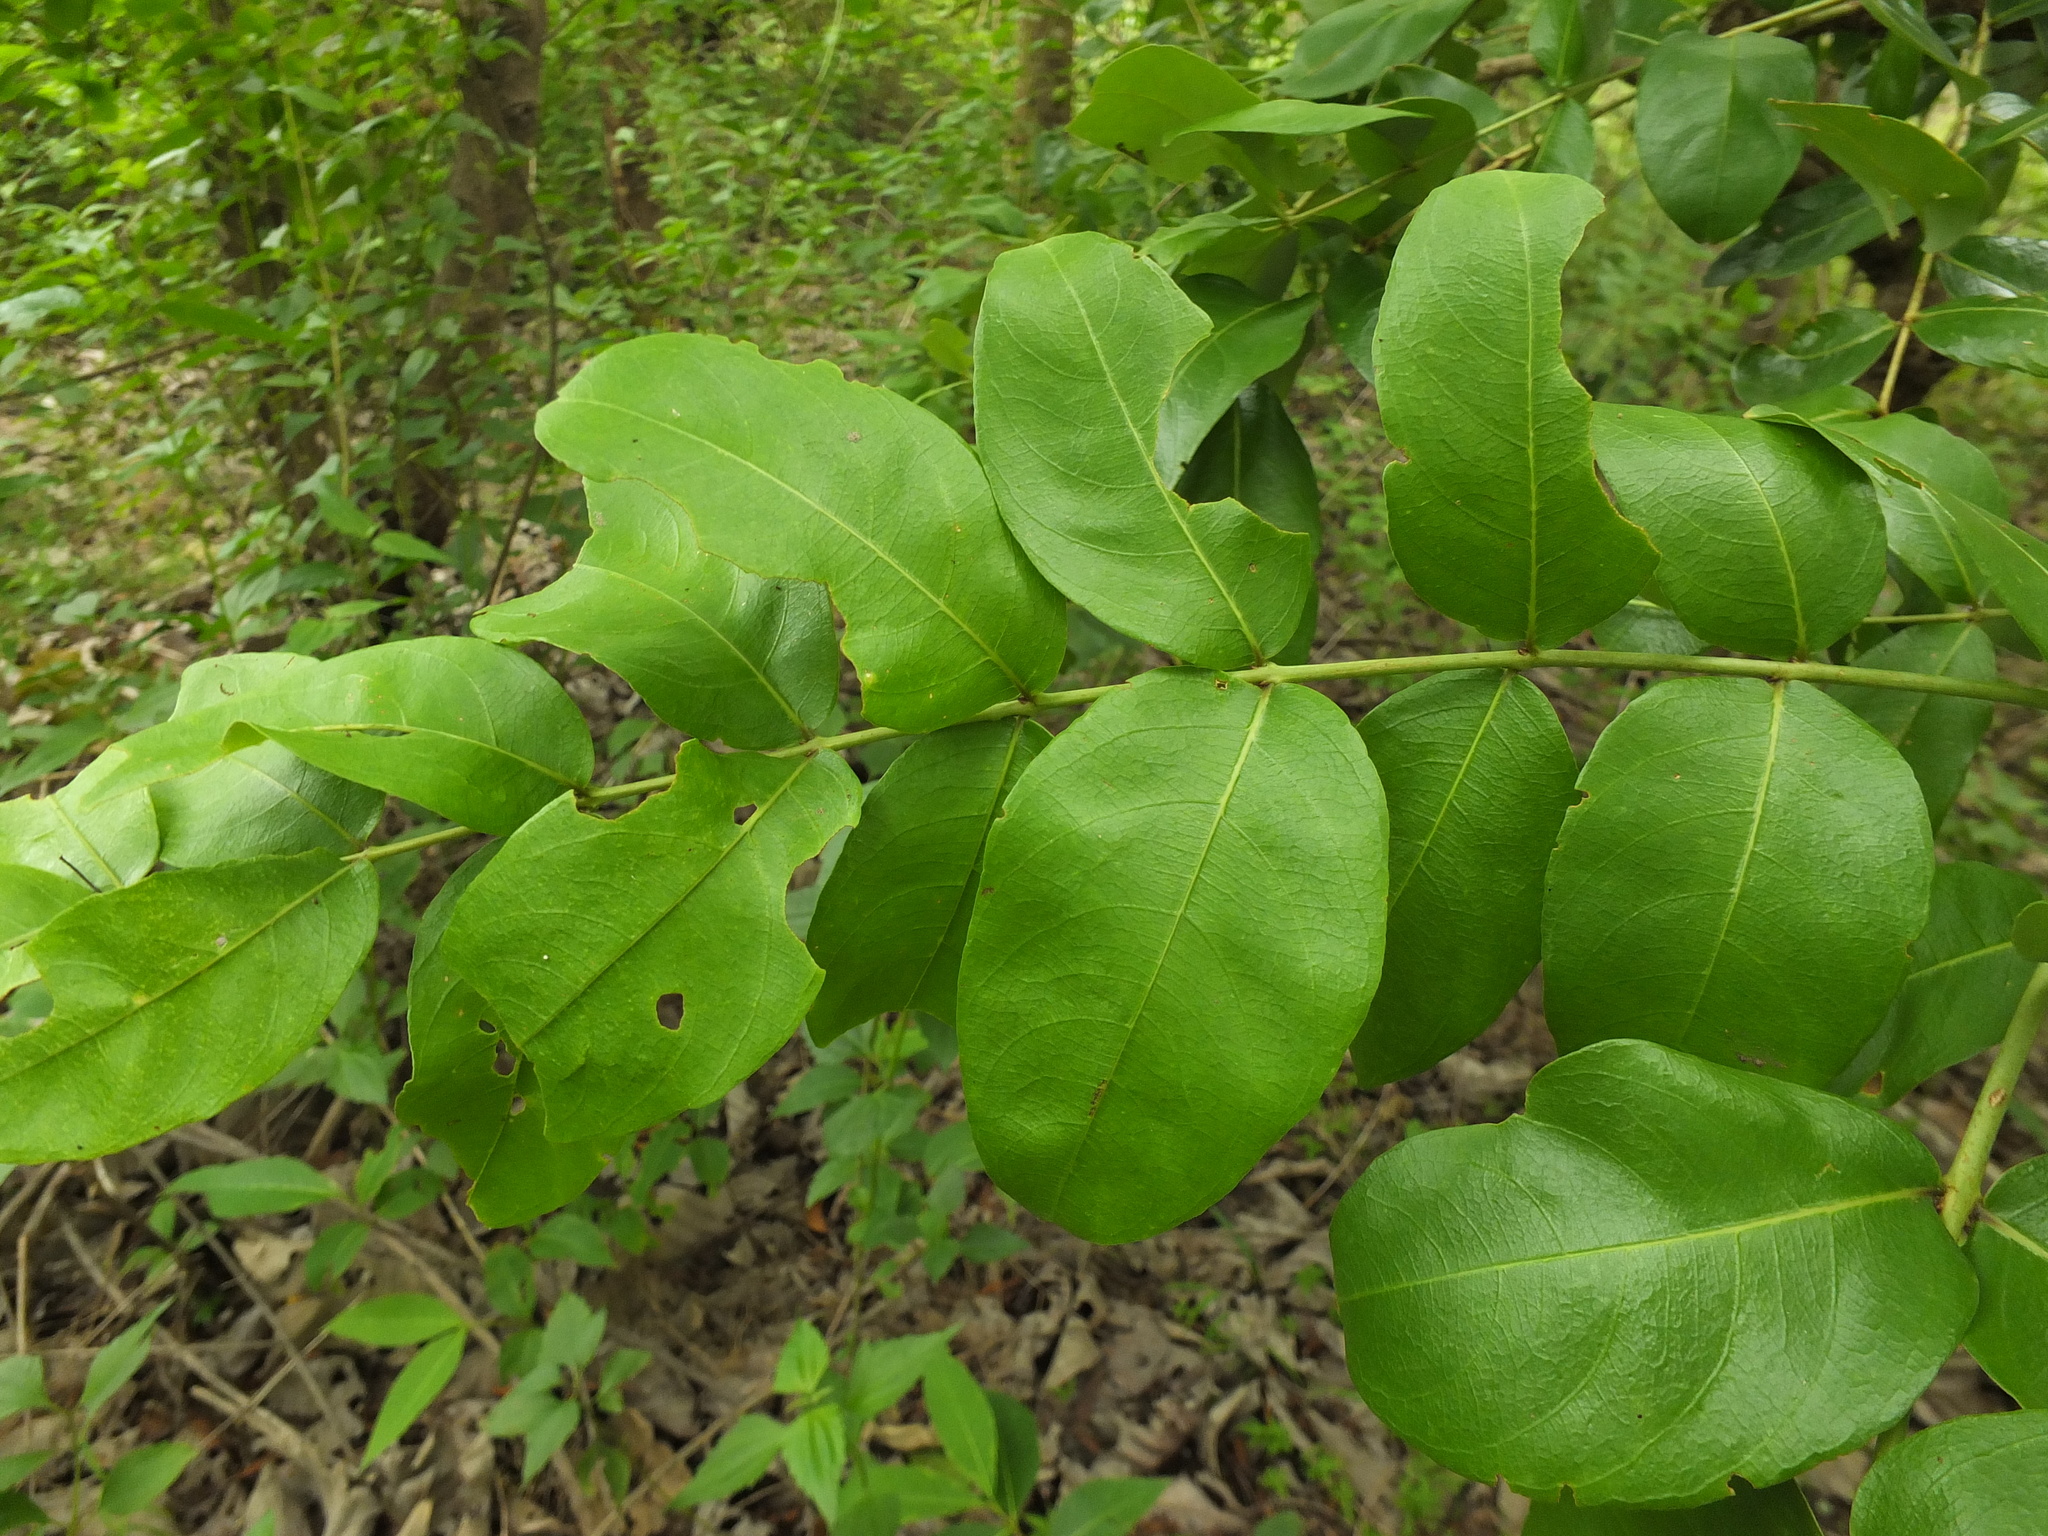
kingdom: Plantae
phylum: Tracheophyta
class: Magnoliopsida
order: Myrtales
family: Lythraceae
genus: Lagerstroemia
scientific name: Lagerstroemia parviflora
